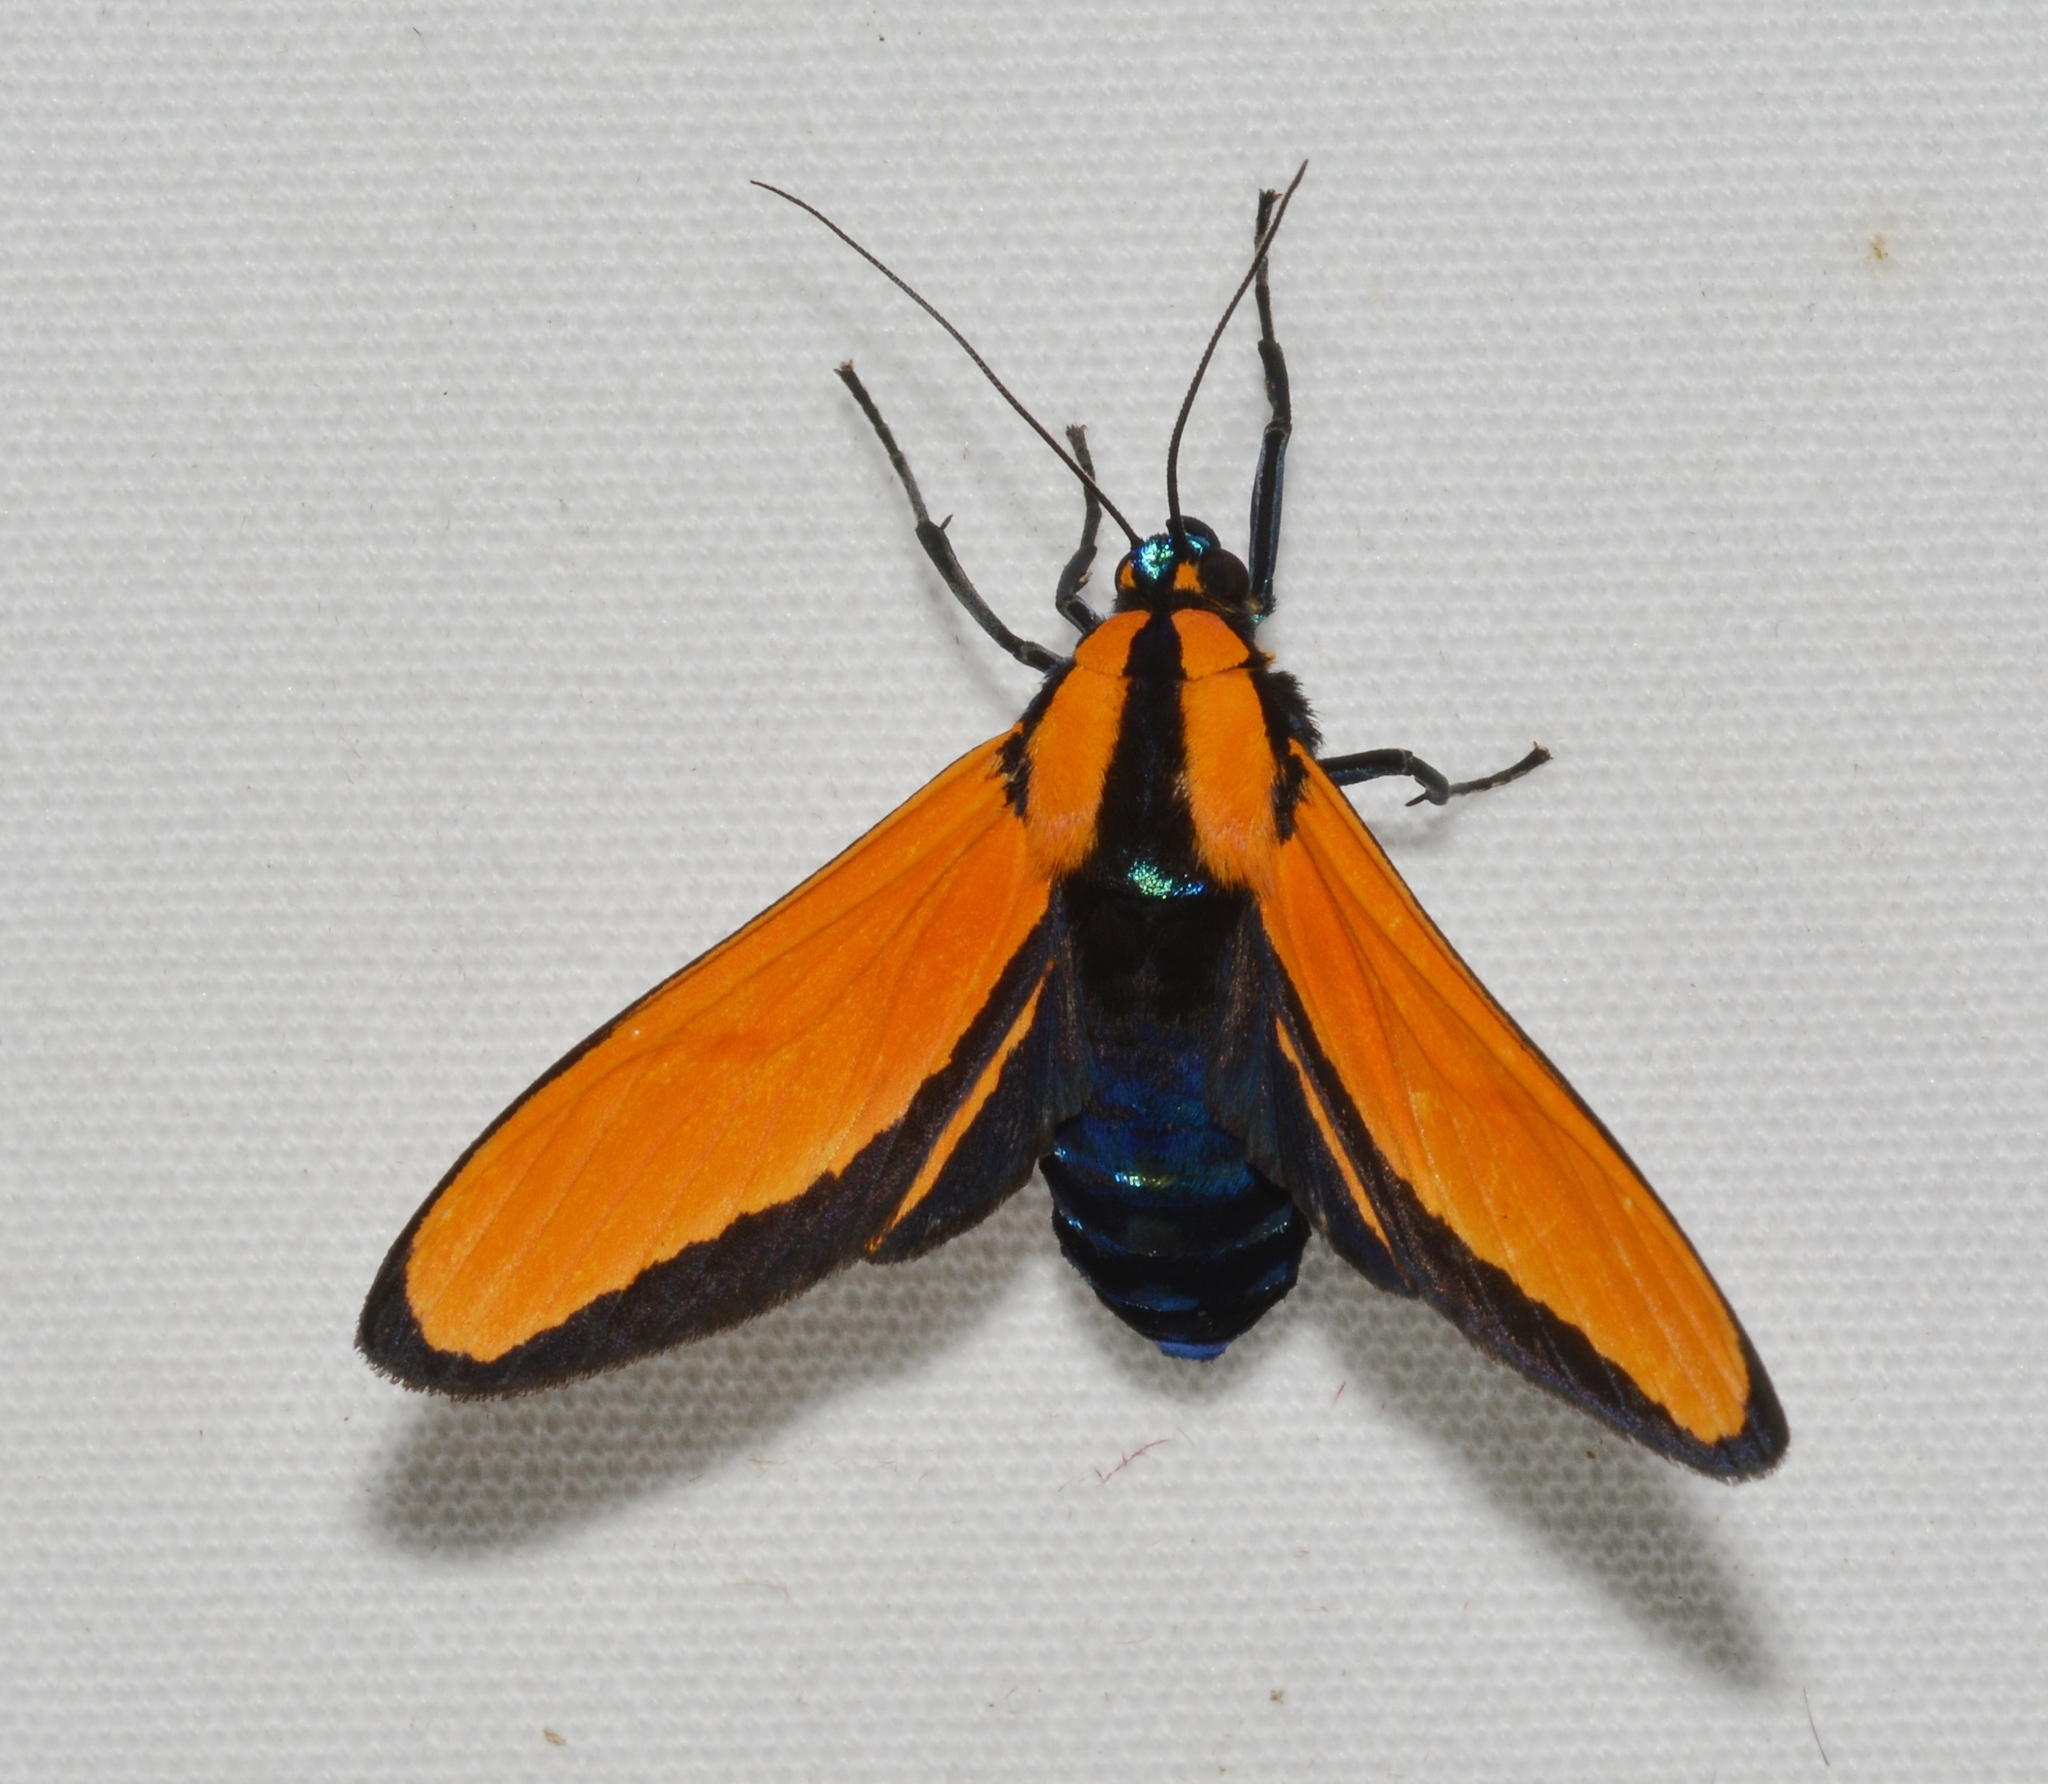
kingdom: Animalia
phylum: Arthropoda
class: Insecta
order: Lepidoptera
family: Erebidae
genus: Ormetica
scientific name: Ormetica taniala
